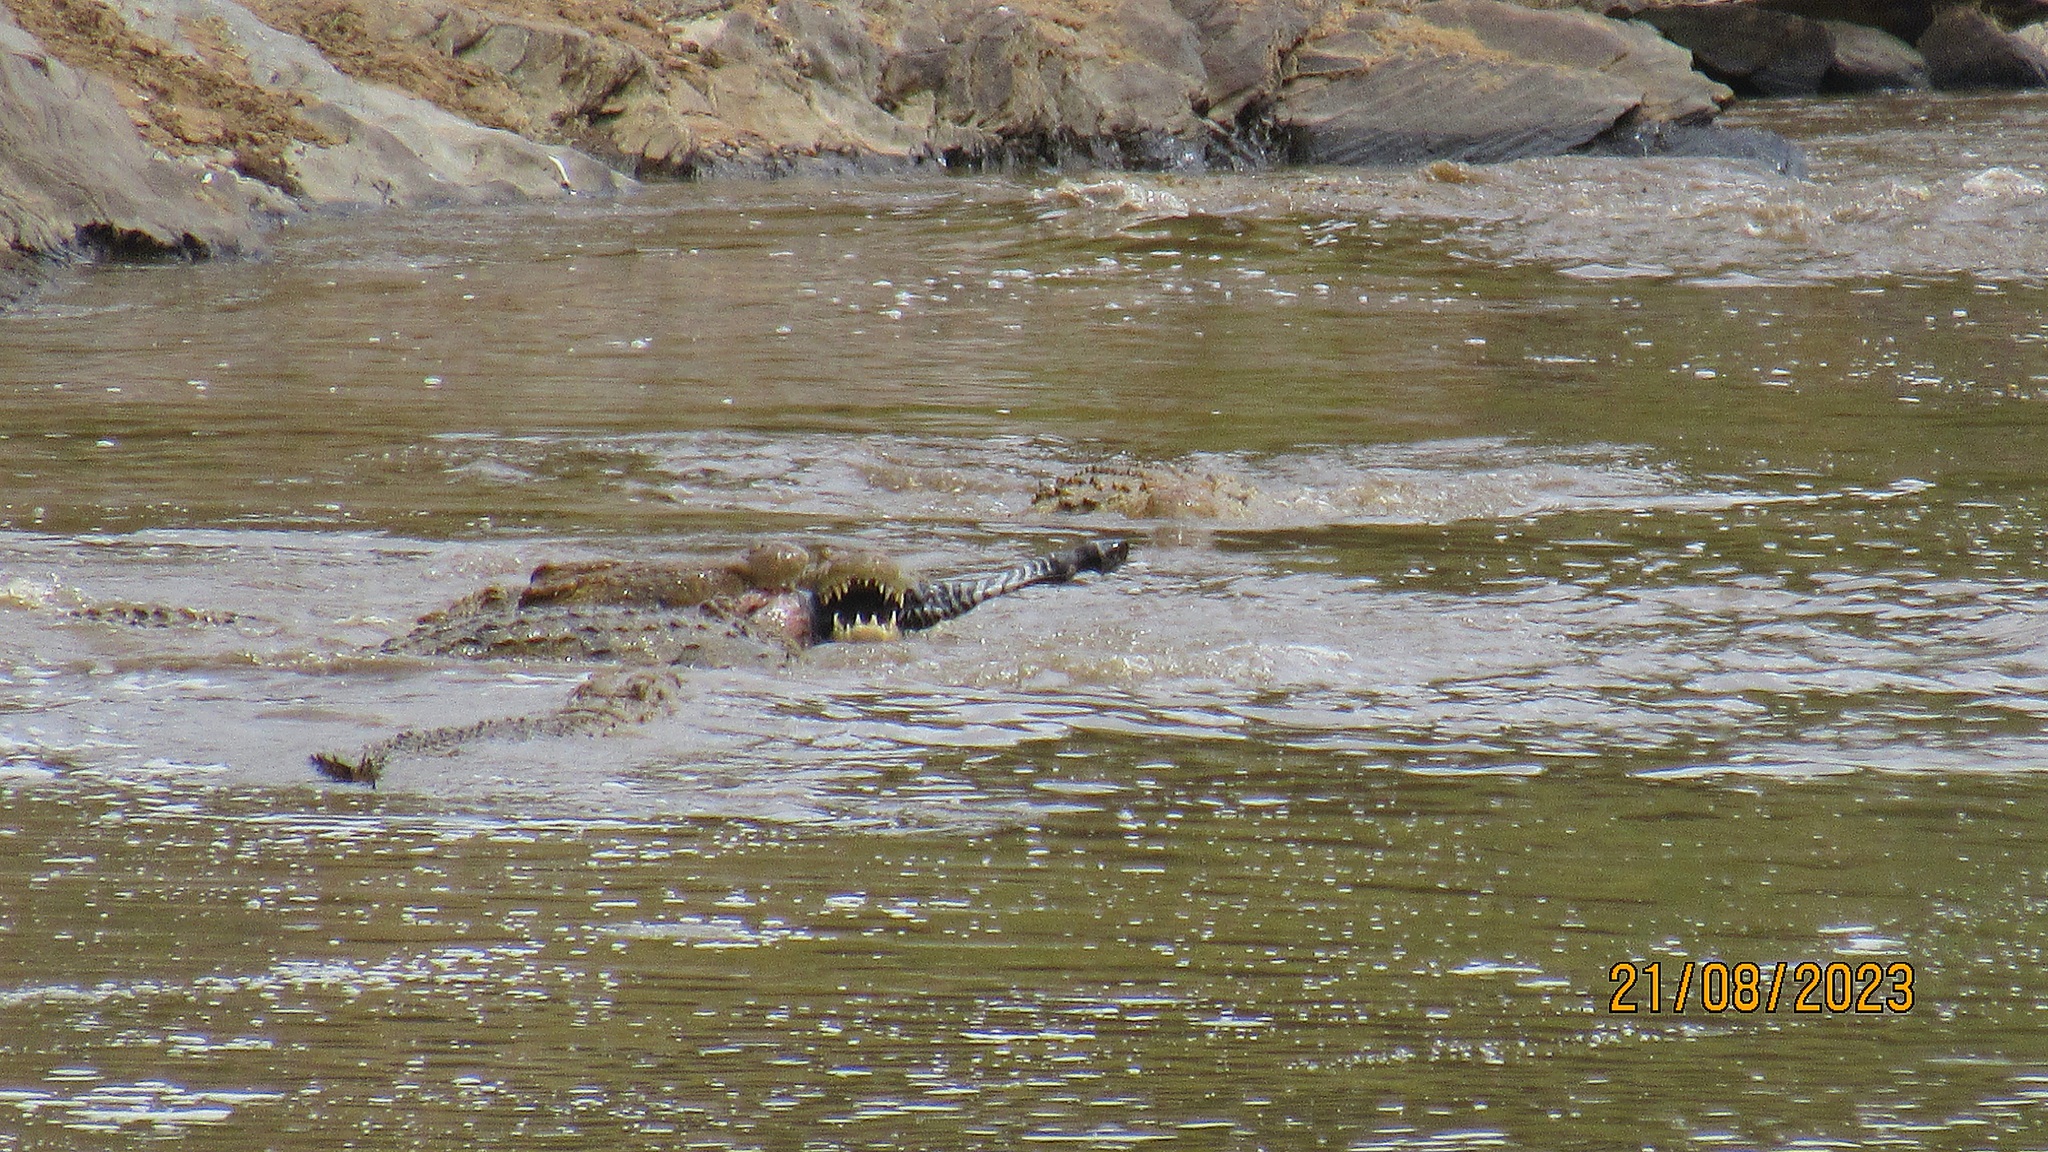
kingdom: Animalia
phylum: Chordata
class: Crocodylia
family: Crocodylidae
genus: Crocodylus
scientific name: Crocodylus niloticus
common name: Nile crocodile
